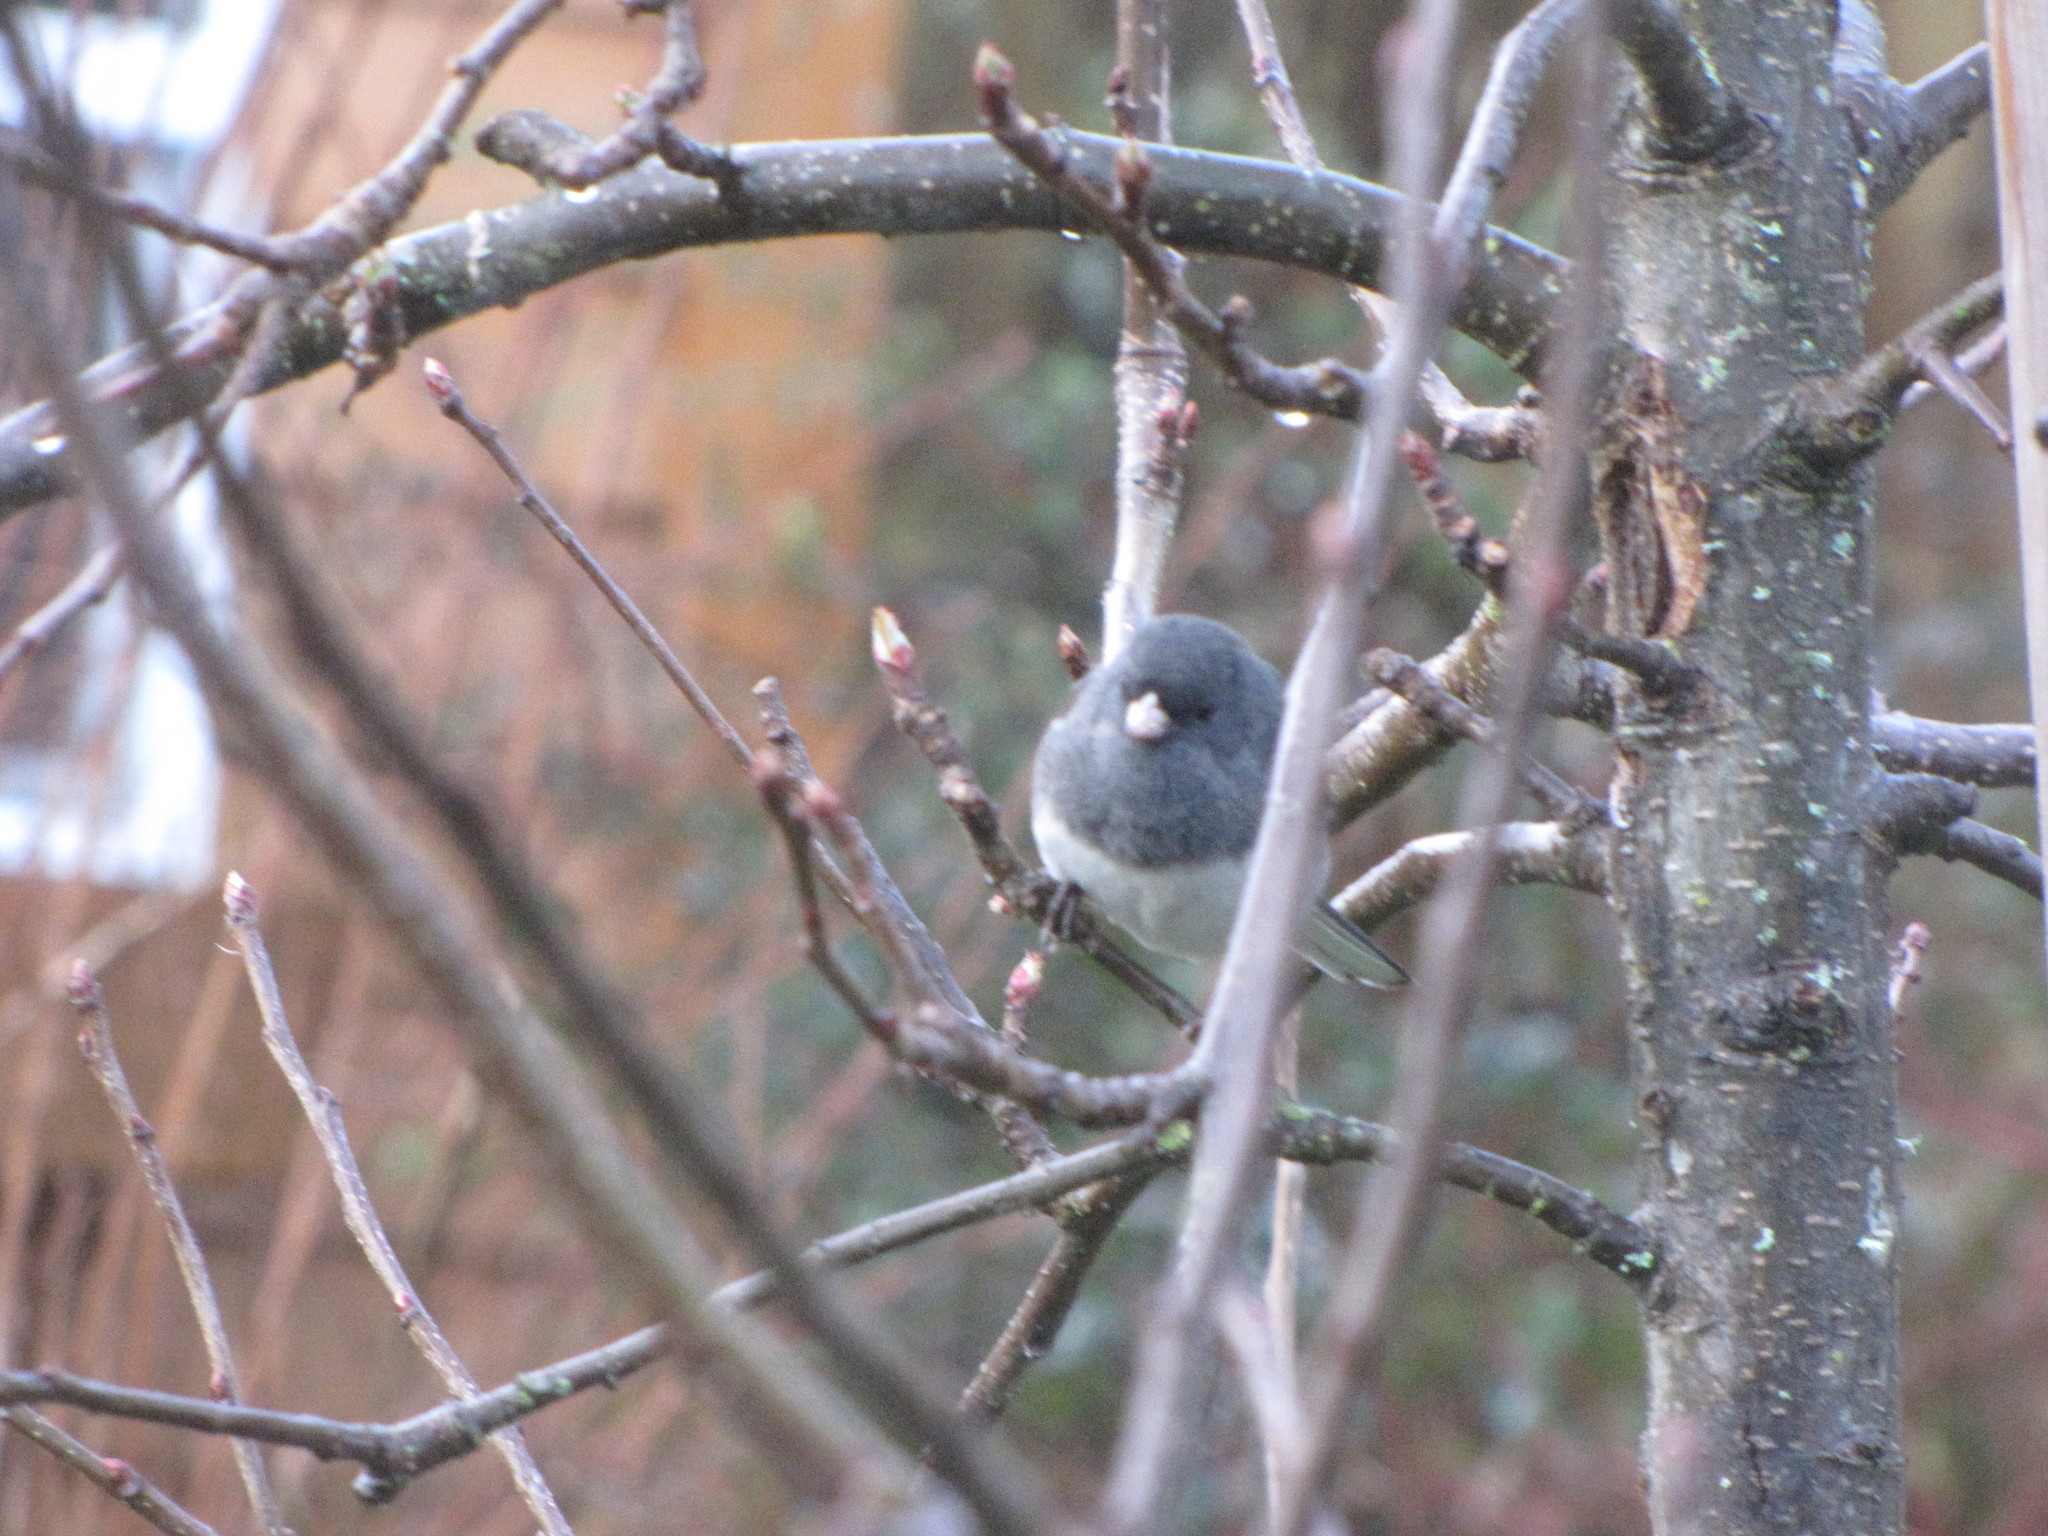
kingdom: Animalia
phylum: Chordata
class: Aves
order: Passeriformes
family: Passerellidae
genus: Junco
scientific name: Junco hyemalis
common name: Dark-eyed junco
